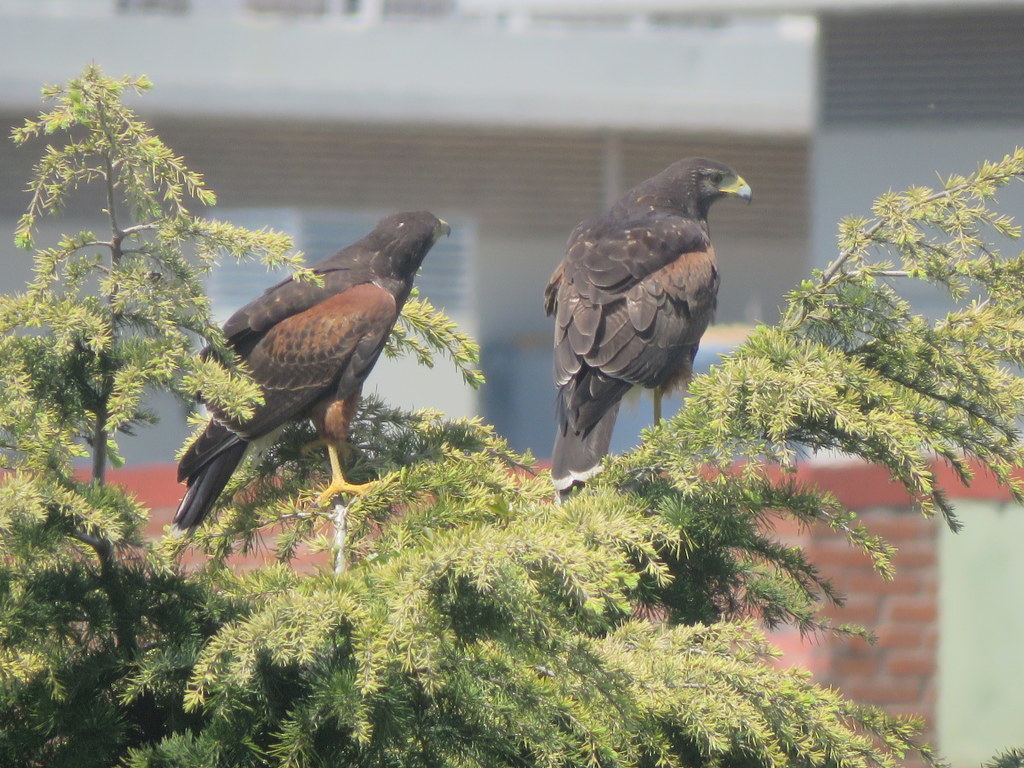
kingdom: Animalia
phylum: Chordata
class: Aves
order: Accipitriformes
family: Accipitridae
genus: Parabuteo
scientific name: Parabuteo unicinctus
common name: Harris's hawk
